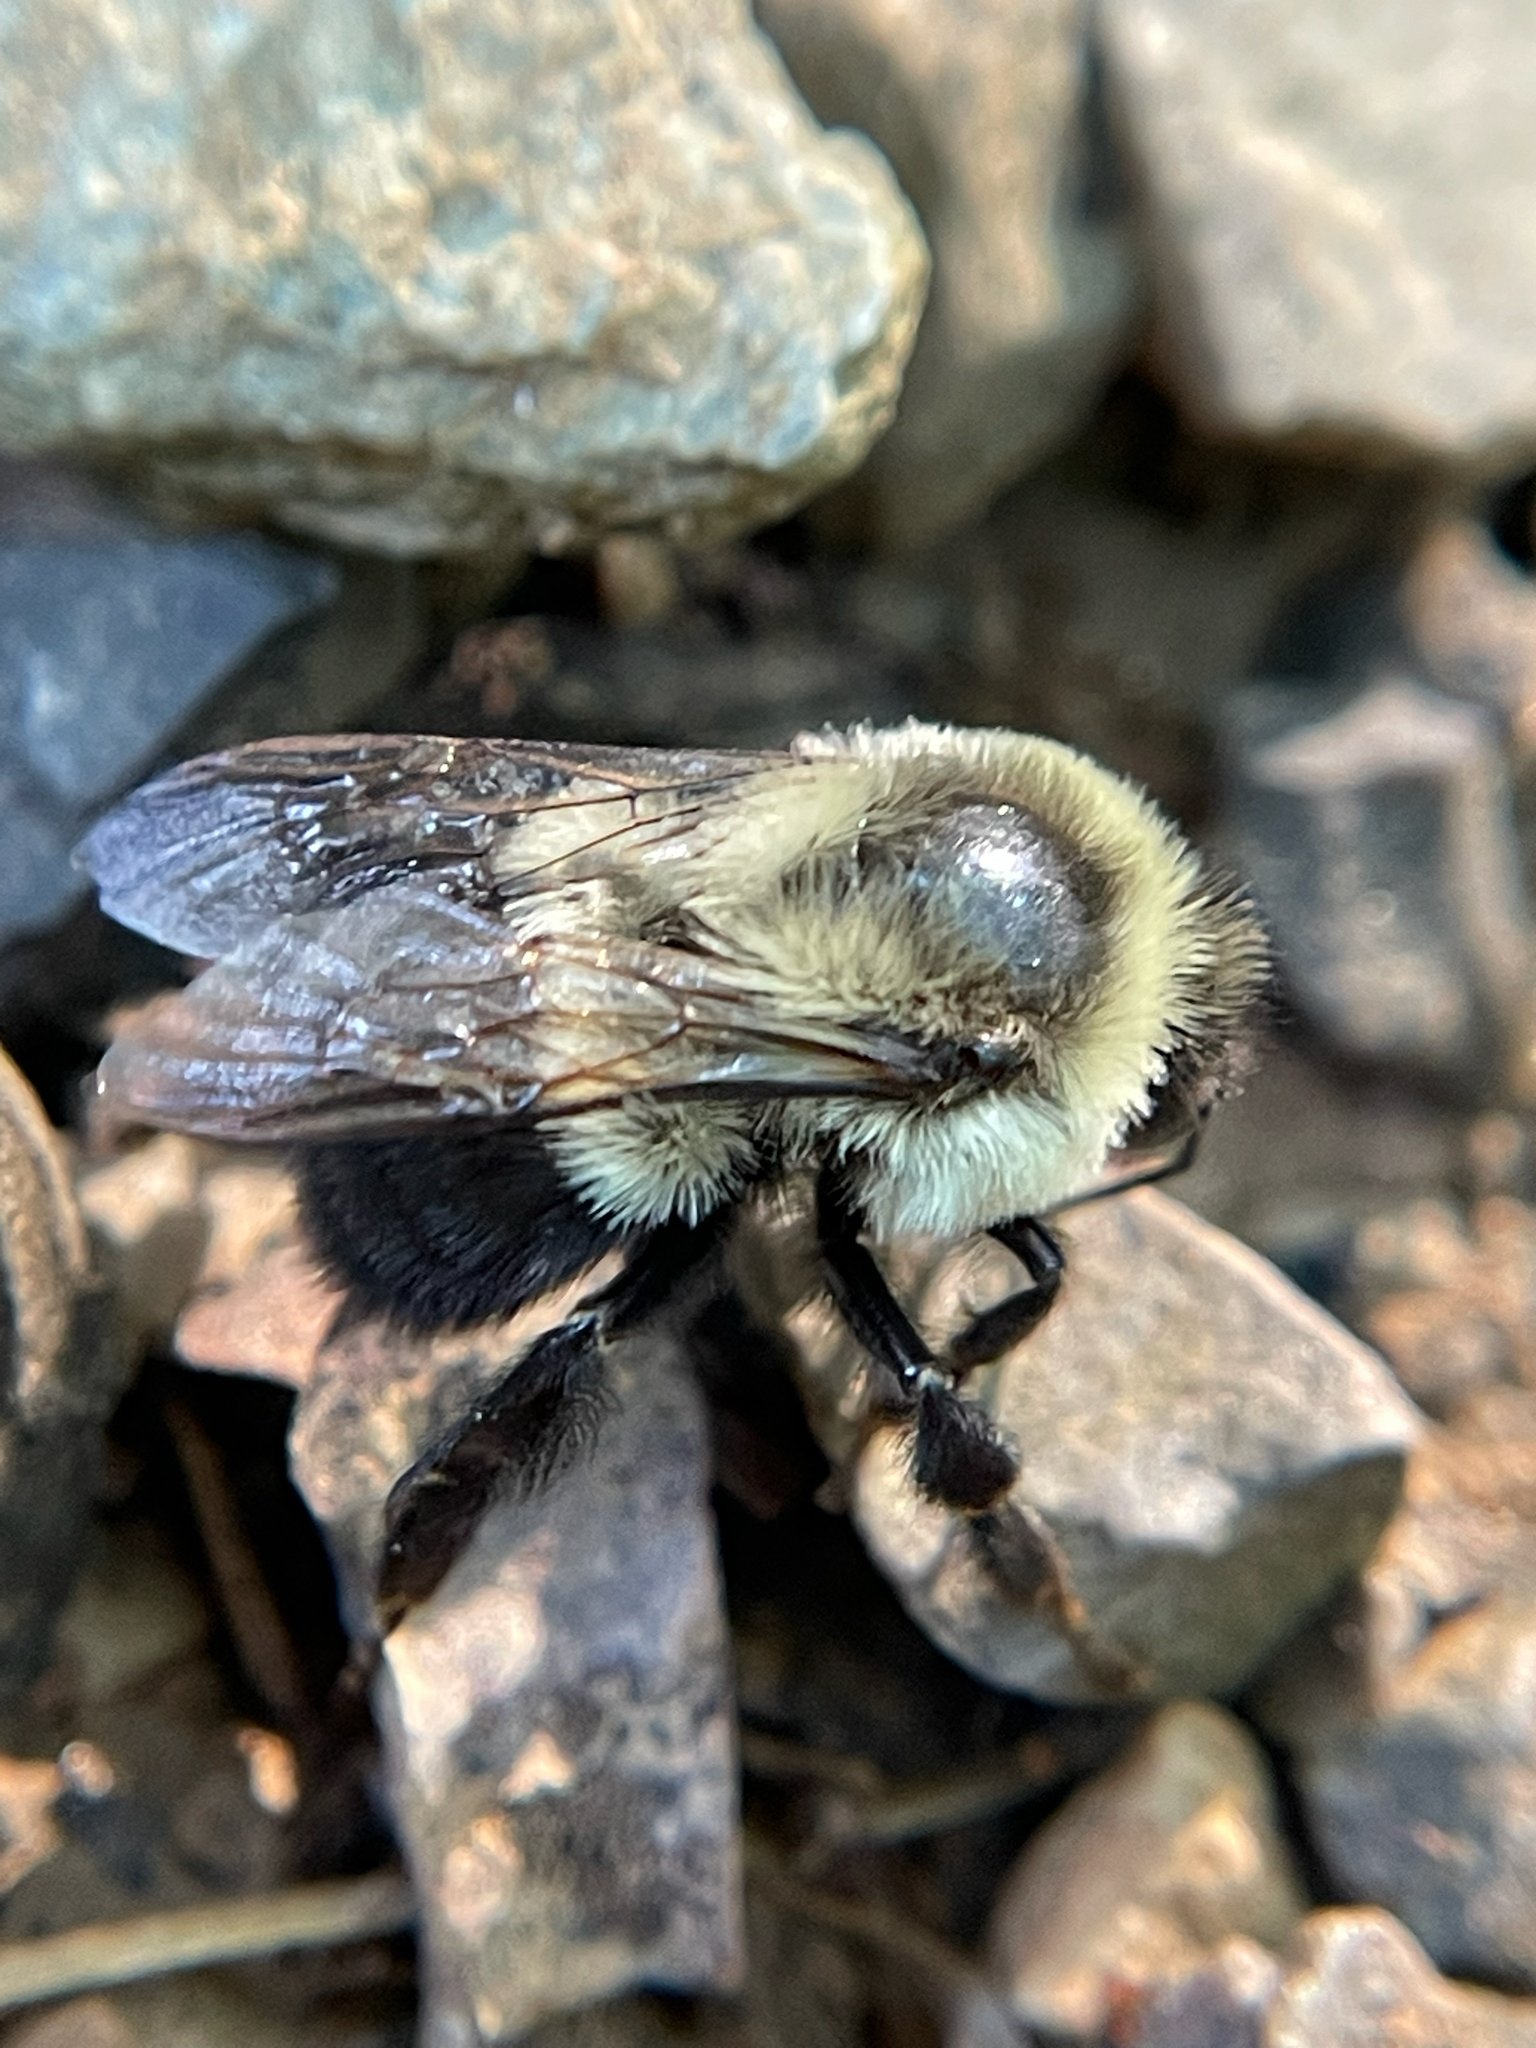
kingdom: Animalia
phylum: Arthropoda
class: Insecta
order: Hymenoptera
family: Apidae
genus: Bombus
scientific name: Bombus impatiens
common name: Common eastern bumble bee
